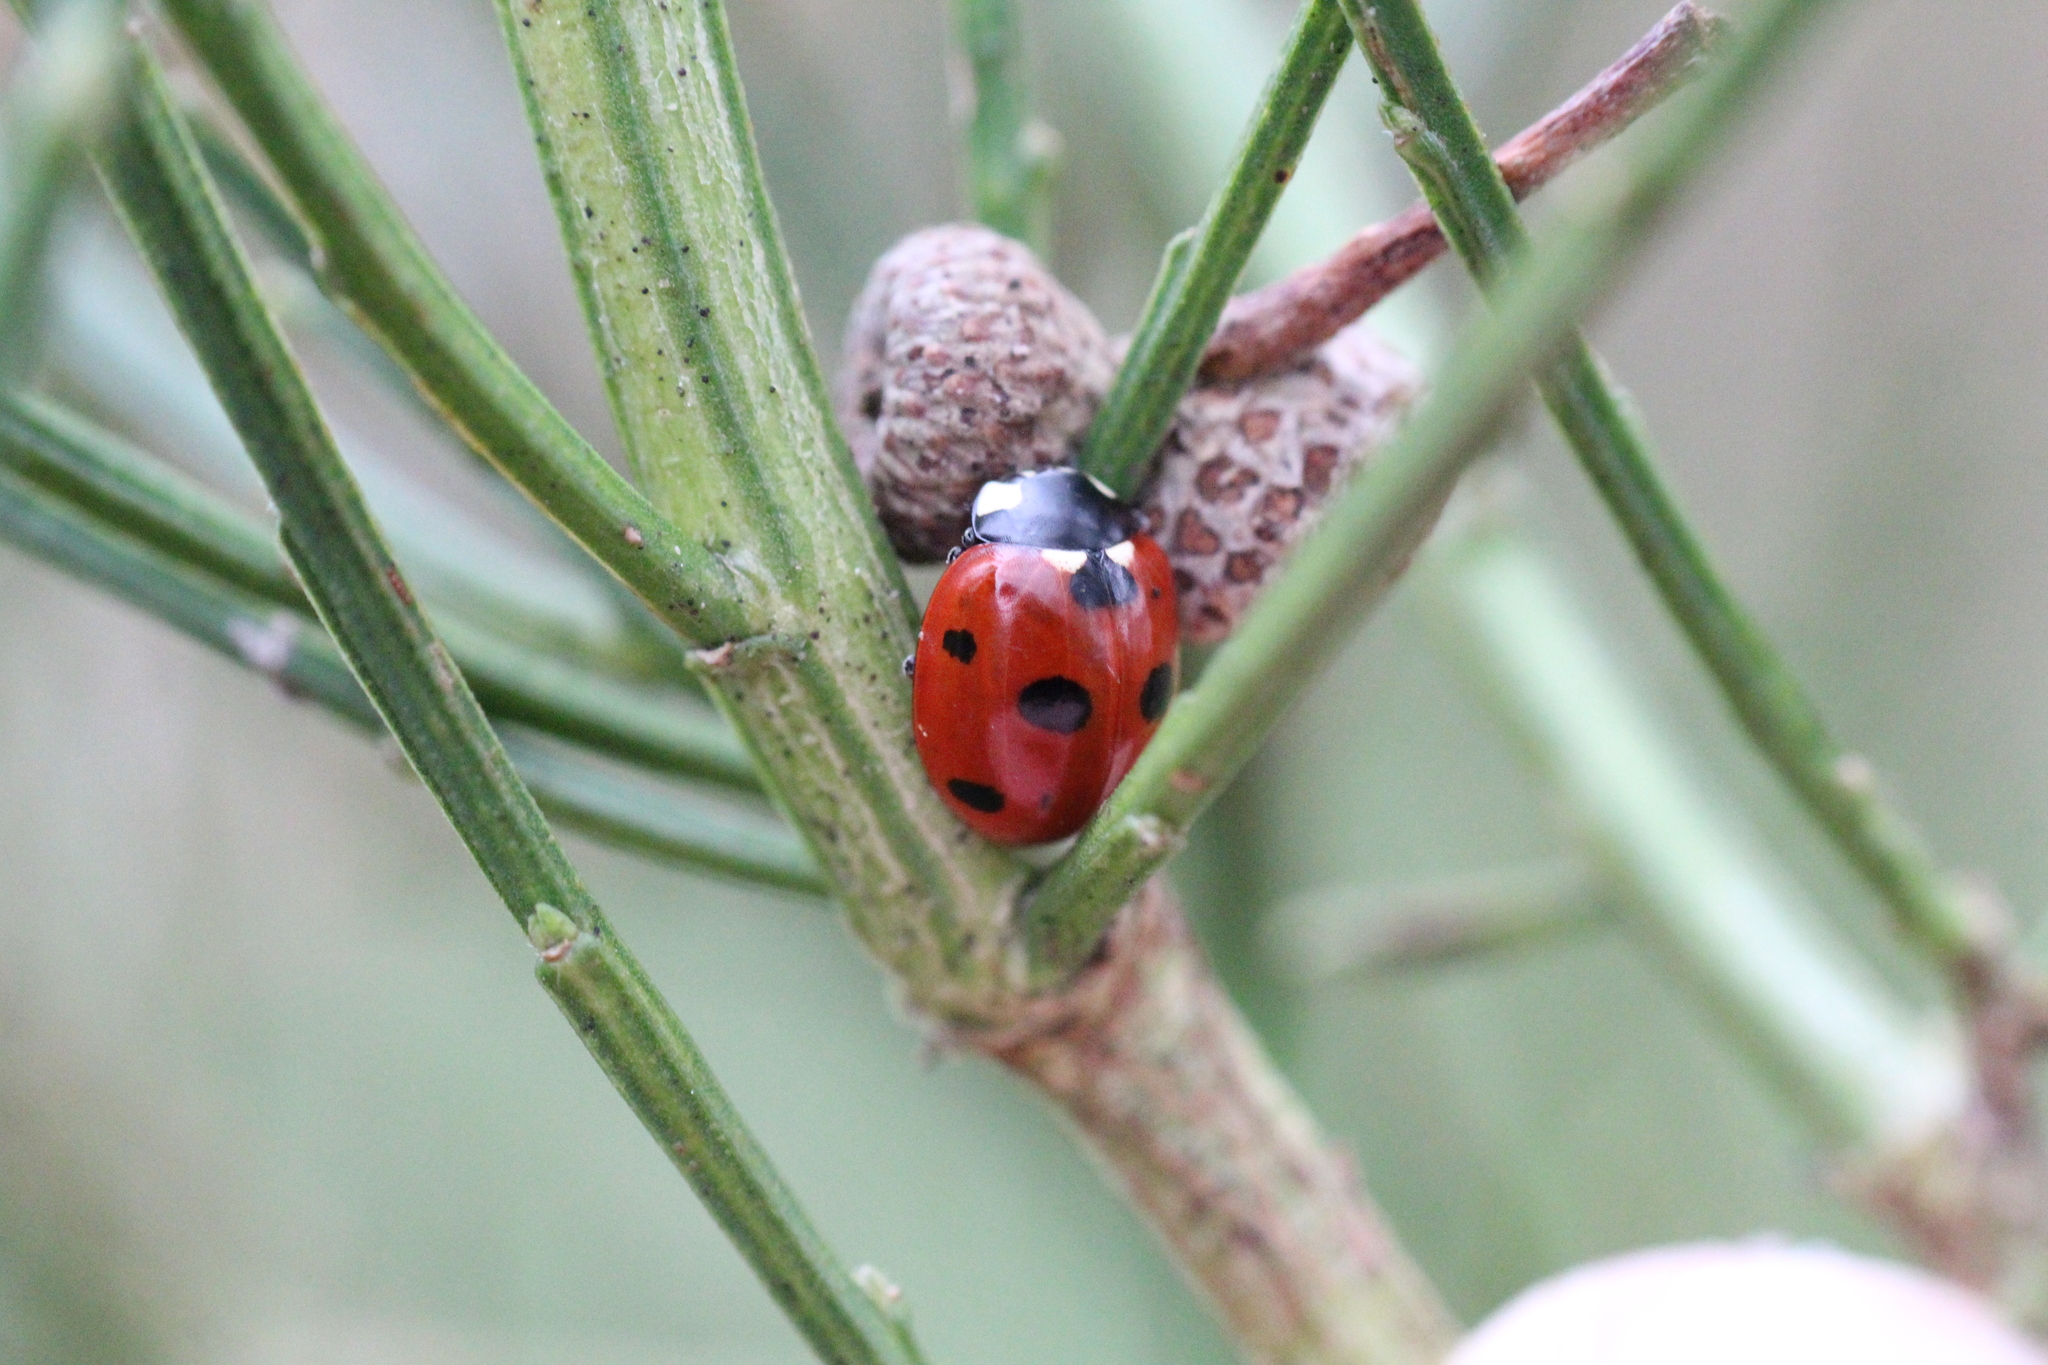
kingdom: Animalia
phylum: Arthropoda
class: Insecta
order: Coleoptera
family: Coccinellidae
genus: Coccinella
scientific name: Coccinella septempunctata
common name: Sevenspotted lady beetle
